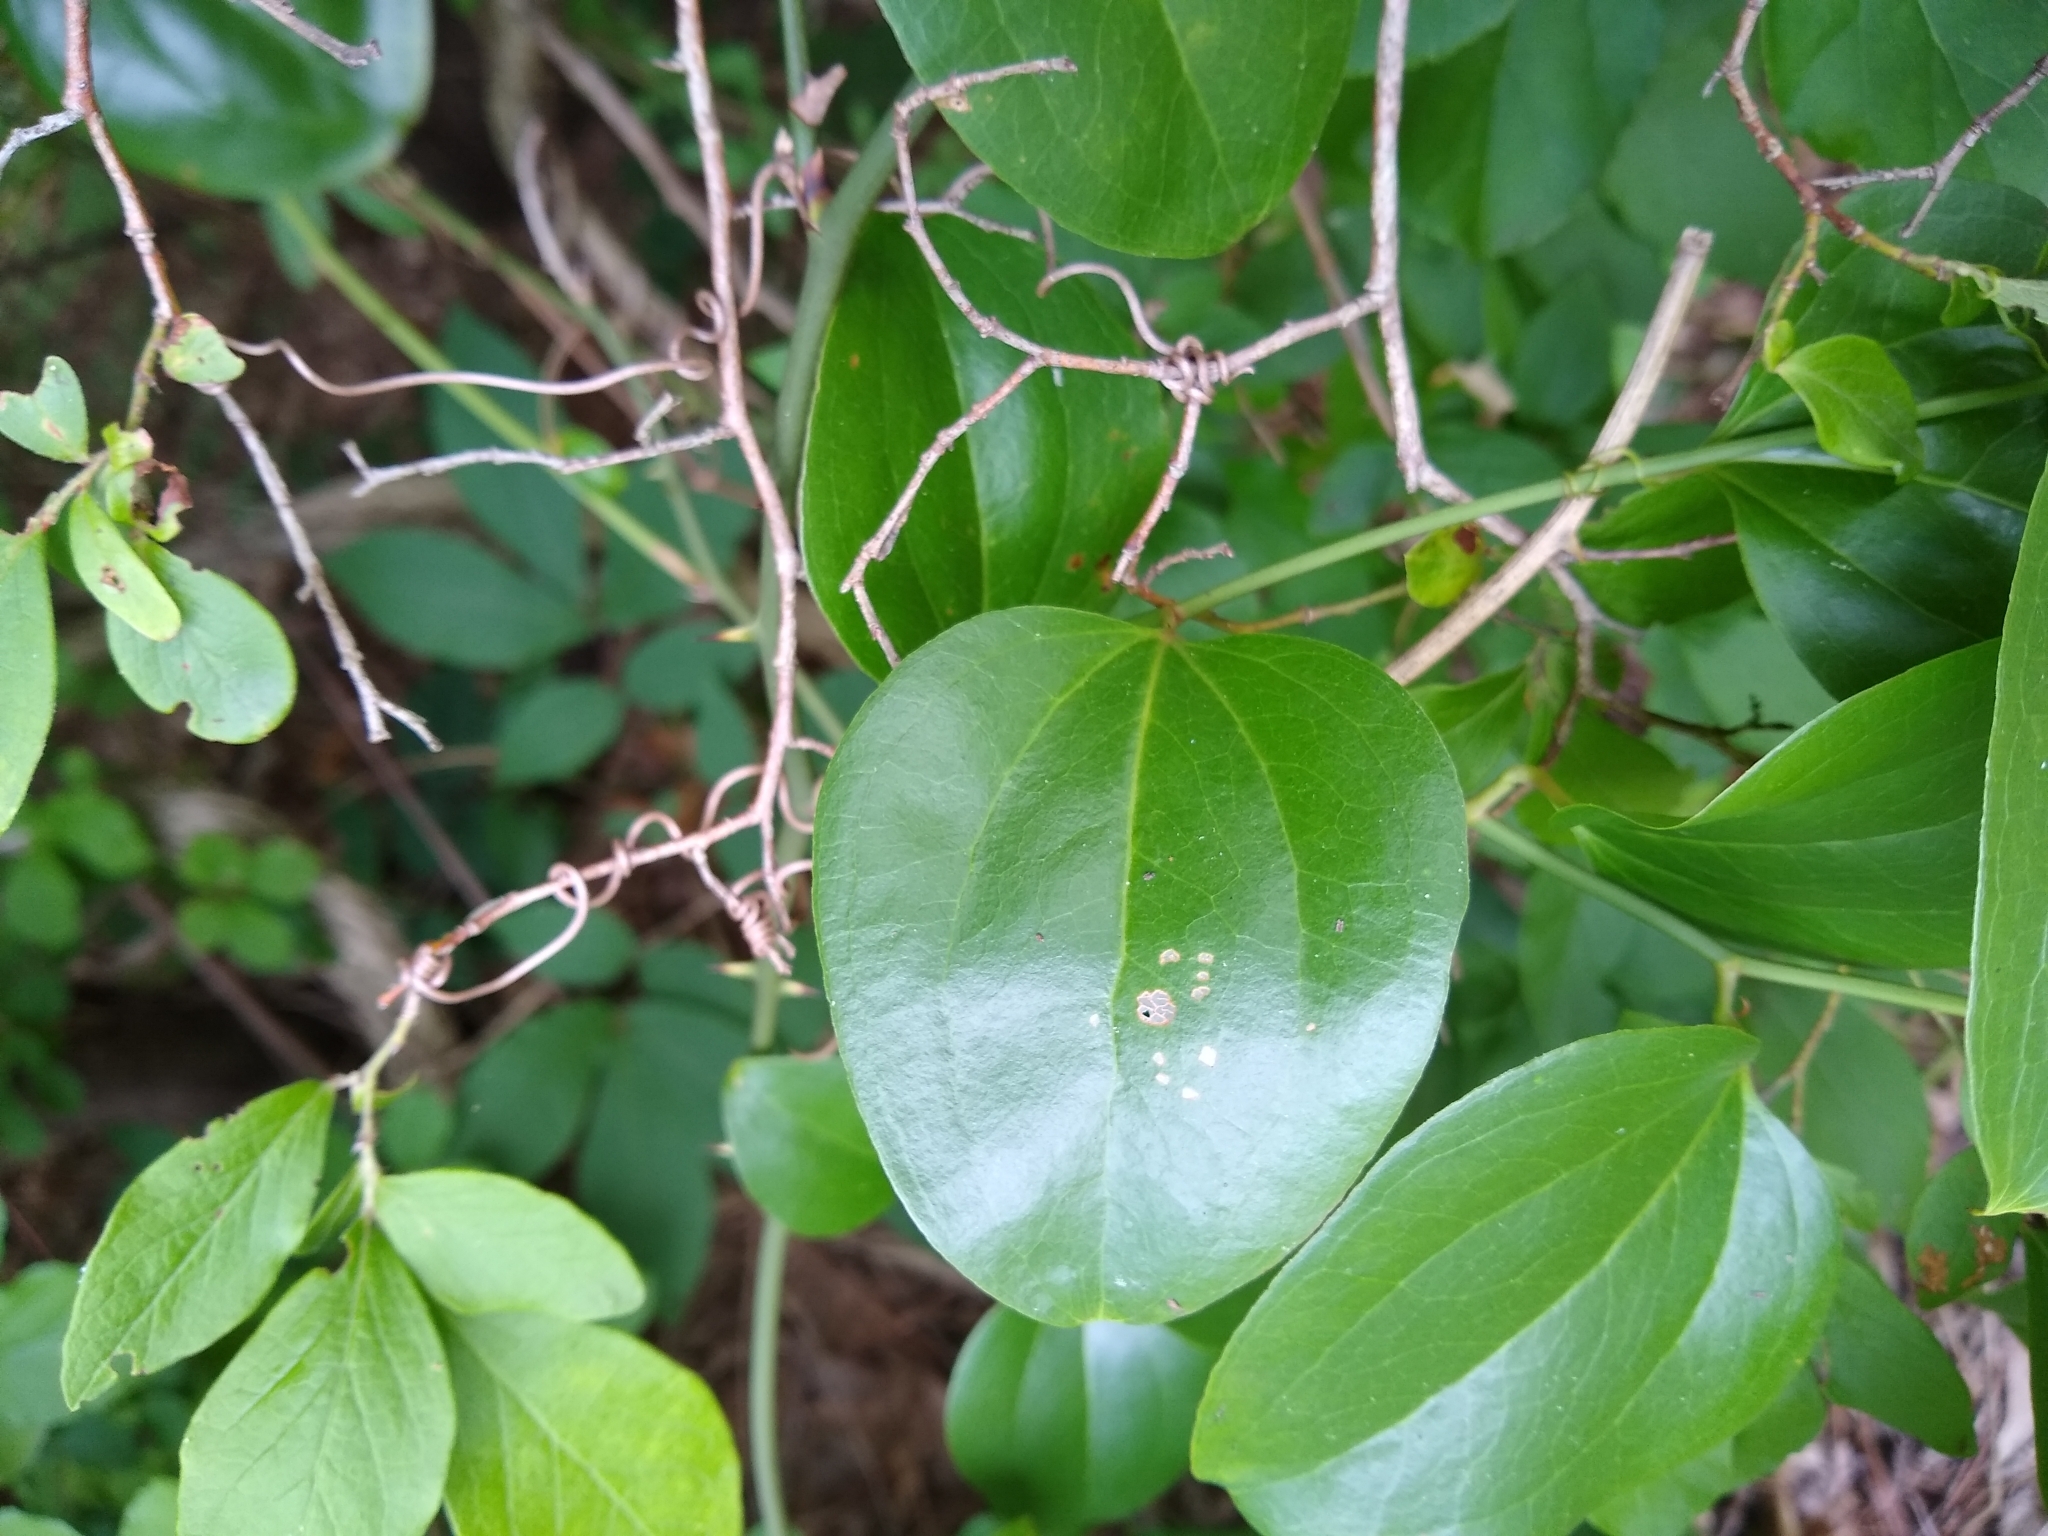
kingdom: Plantae
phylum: Tracheophyta
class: Liliopsida
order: Liliales
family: Smilacaceae
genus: Smilax
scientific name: Smilax rotundifolia
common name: Bullbriar
